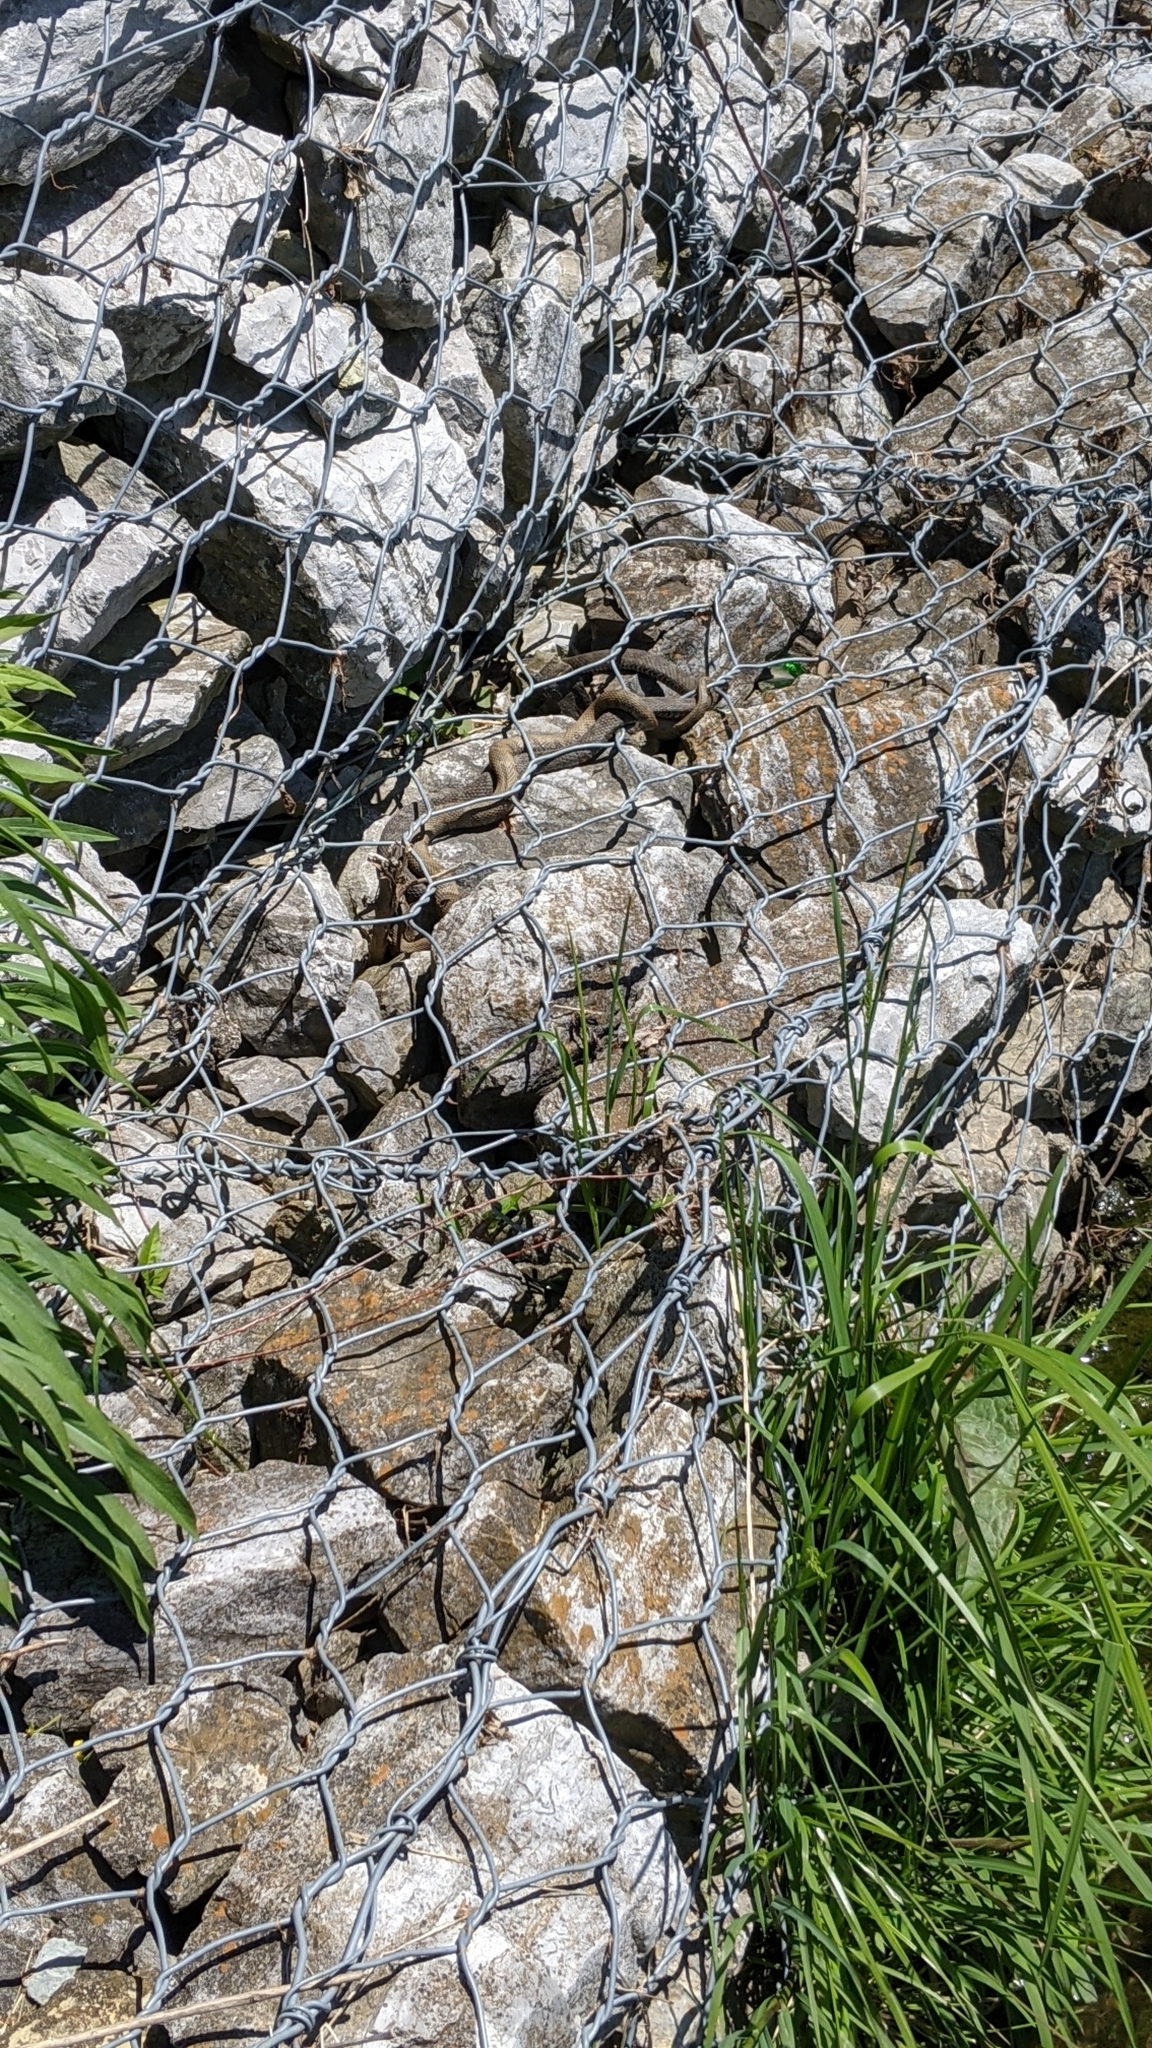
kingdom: Animalia
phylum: Chordata
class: Squamata
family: Colubridae
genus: Nerodia
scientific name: Nerodia sipedon
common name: Northern water snake
